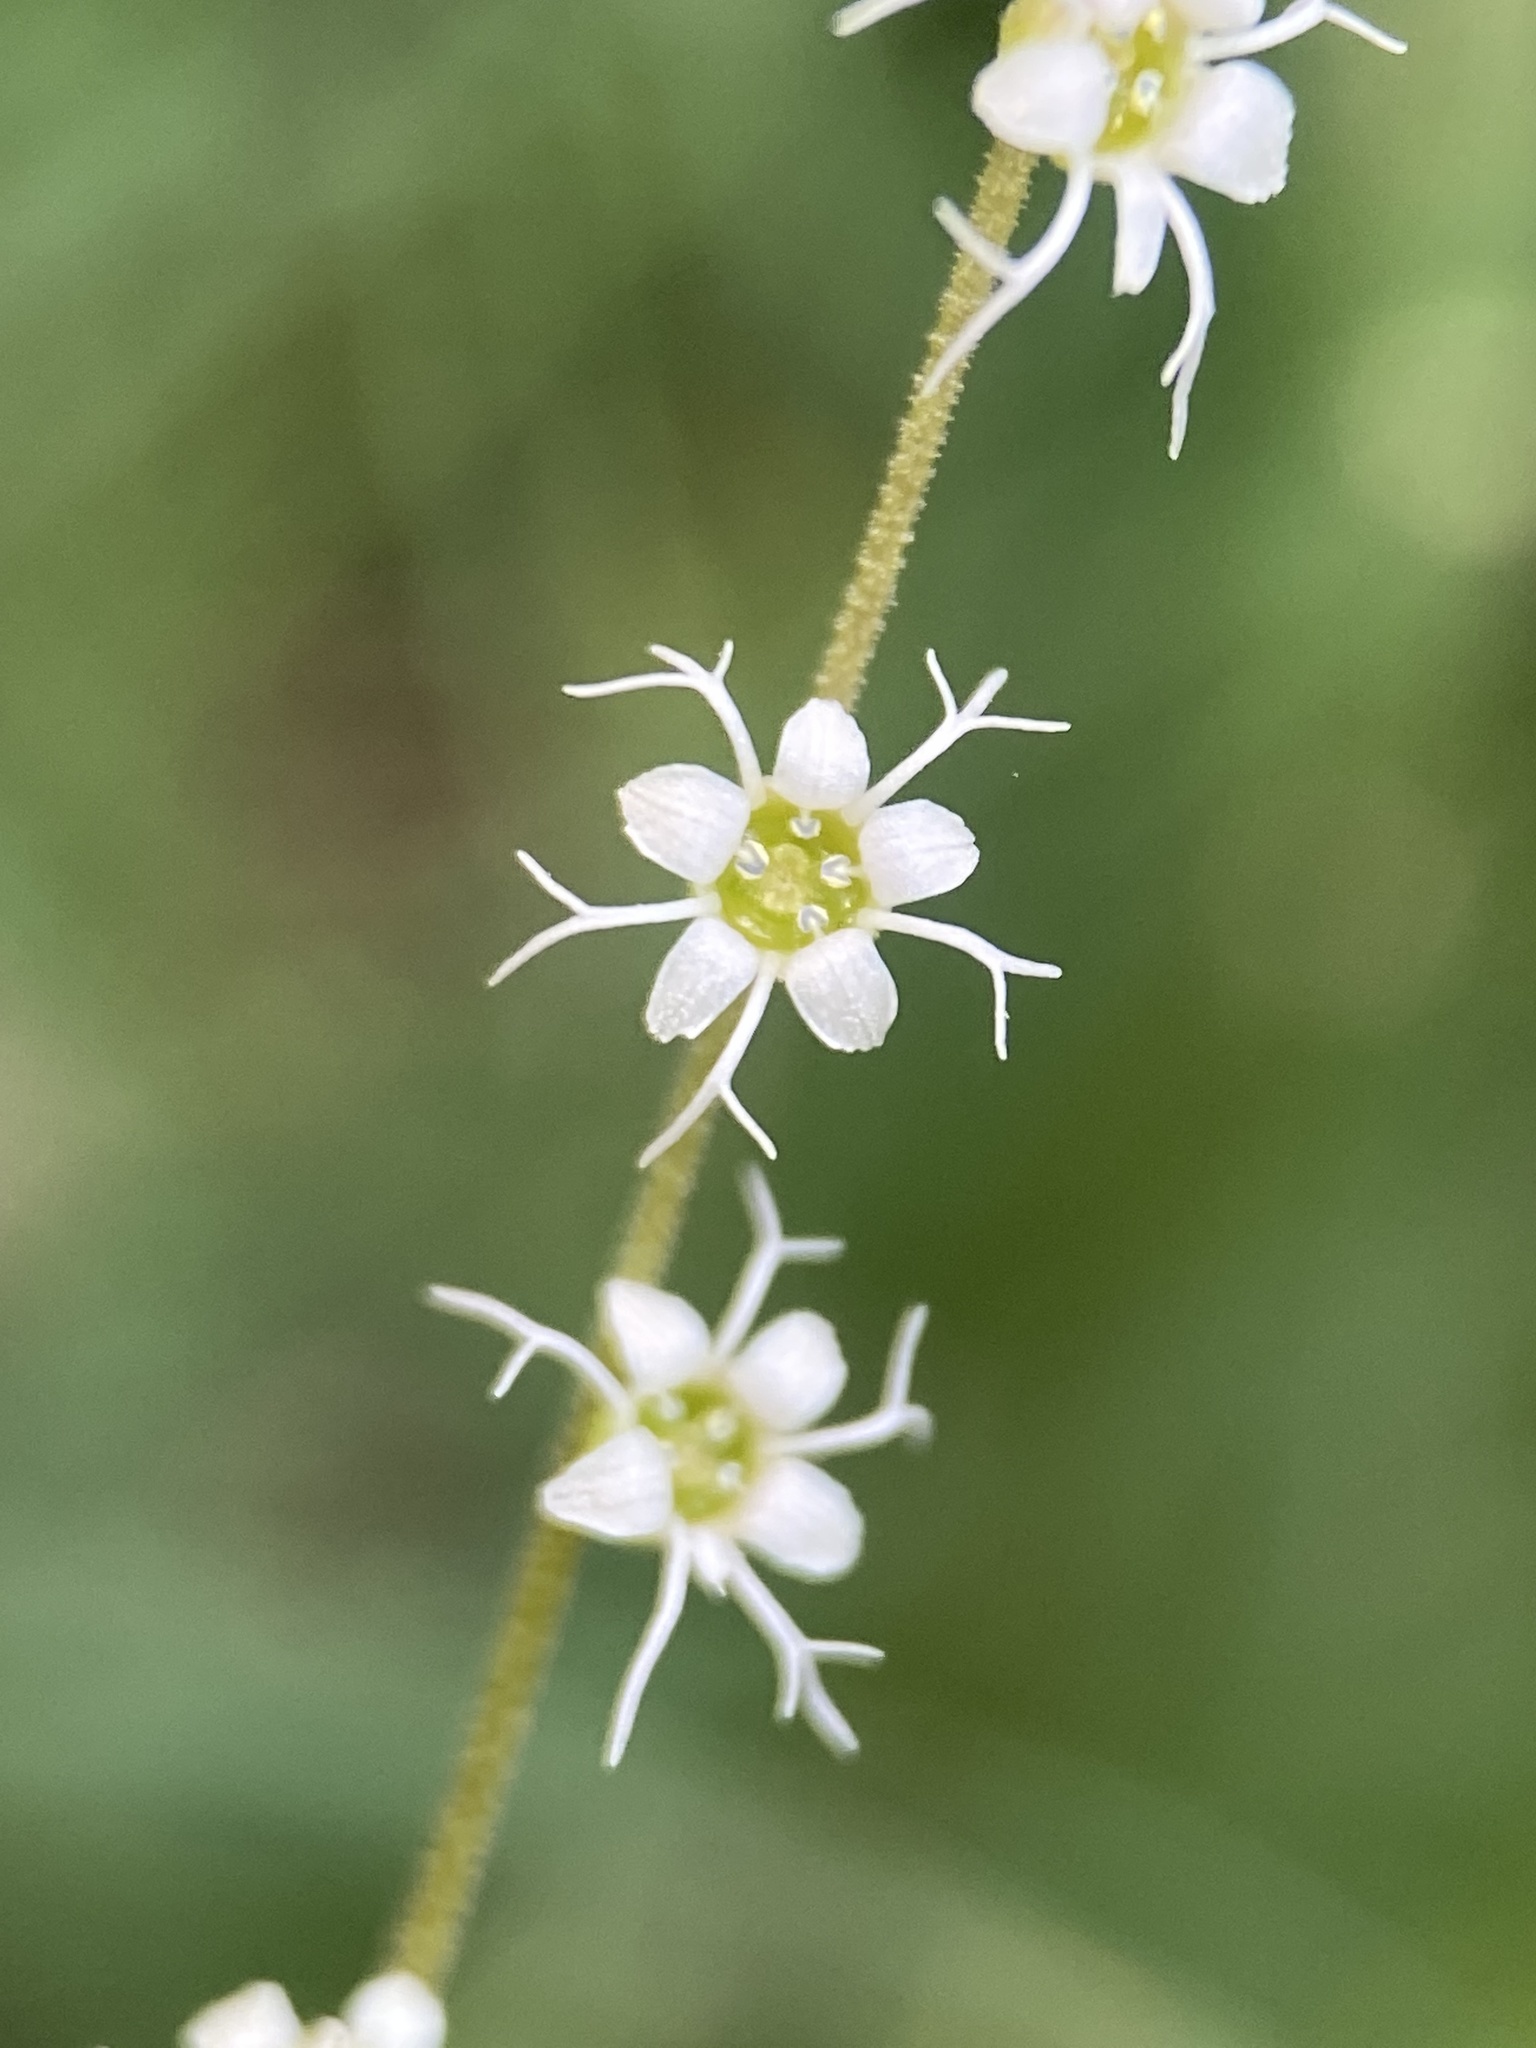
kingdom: Plantae
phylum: Tracheophyta
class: Magnoliopsida
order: Saxifragales
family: Saxifragaceae
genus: Ozomelis
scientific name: Ozomelis stauropetala
